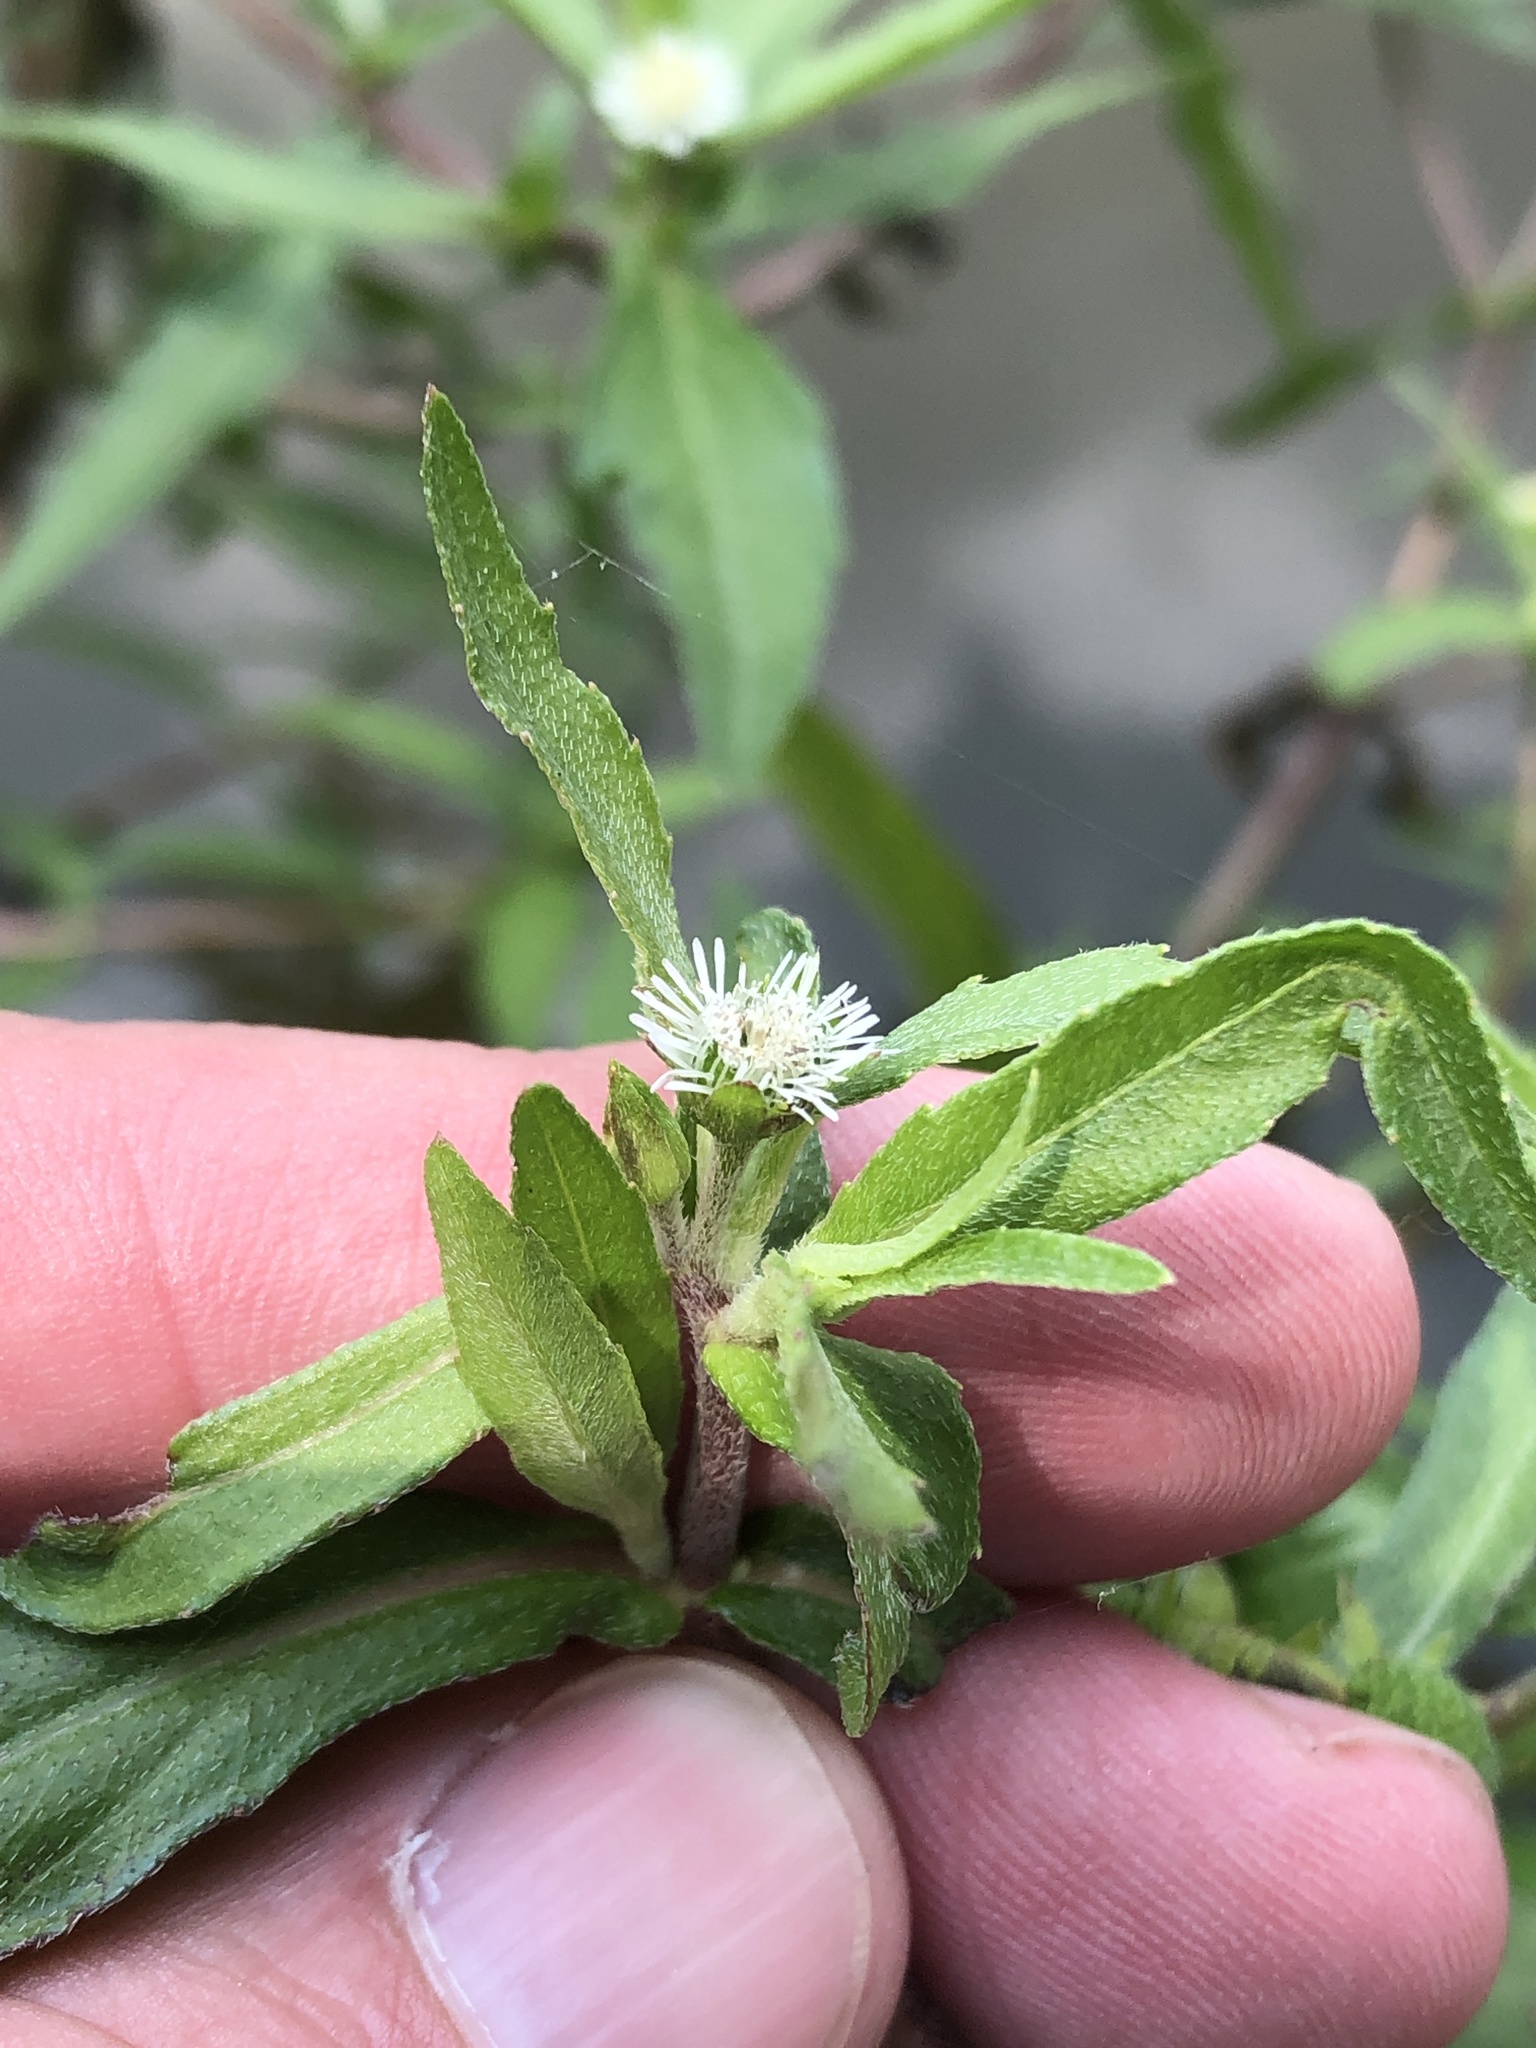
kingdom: Plantae
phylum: Tracheophyta
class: Magnoliopsida
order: Asterales
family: Asteraceae
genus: Eclipta
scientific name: Eclipta prostrata
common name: False daisy
